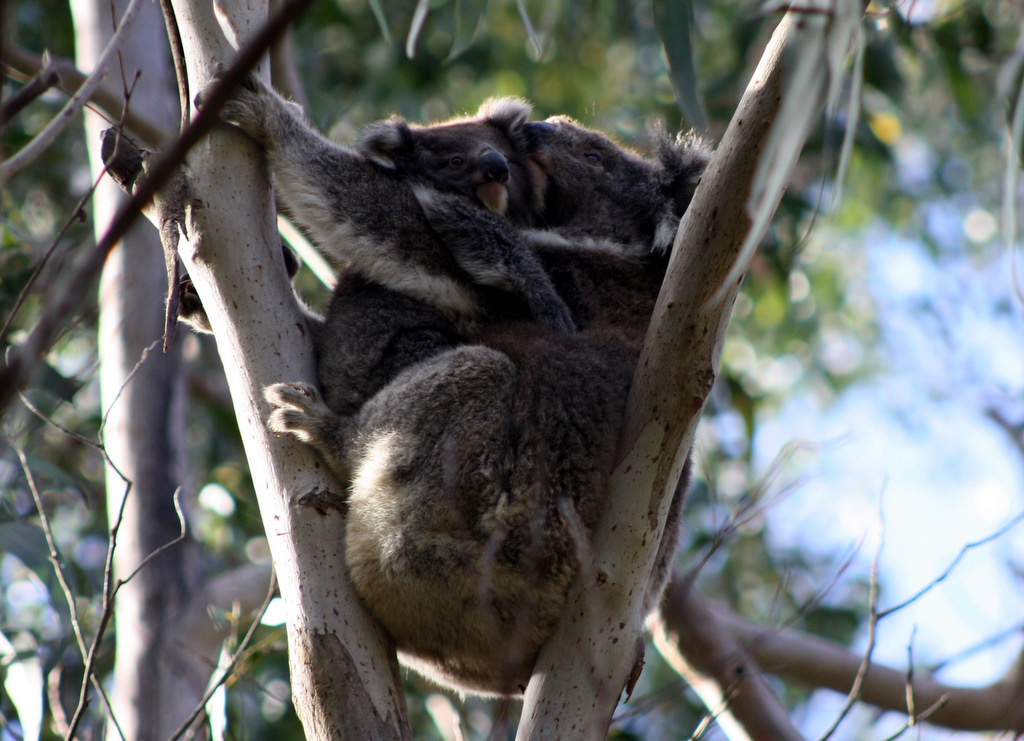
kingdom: Animalia
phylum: Chordata
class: Mammalia
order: Diprotodontia
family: Phascolarctidae
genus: Phascolarctos
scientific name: Phascolarctos cinereus
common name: Koala
